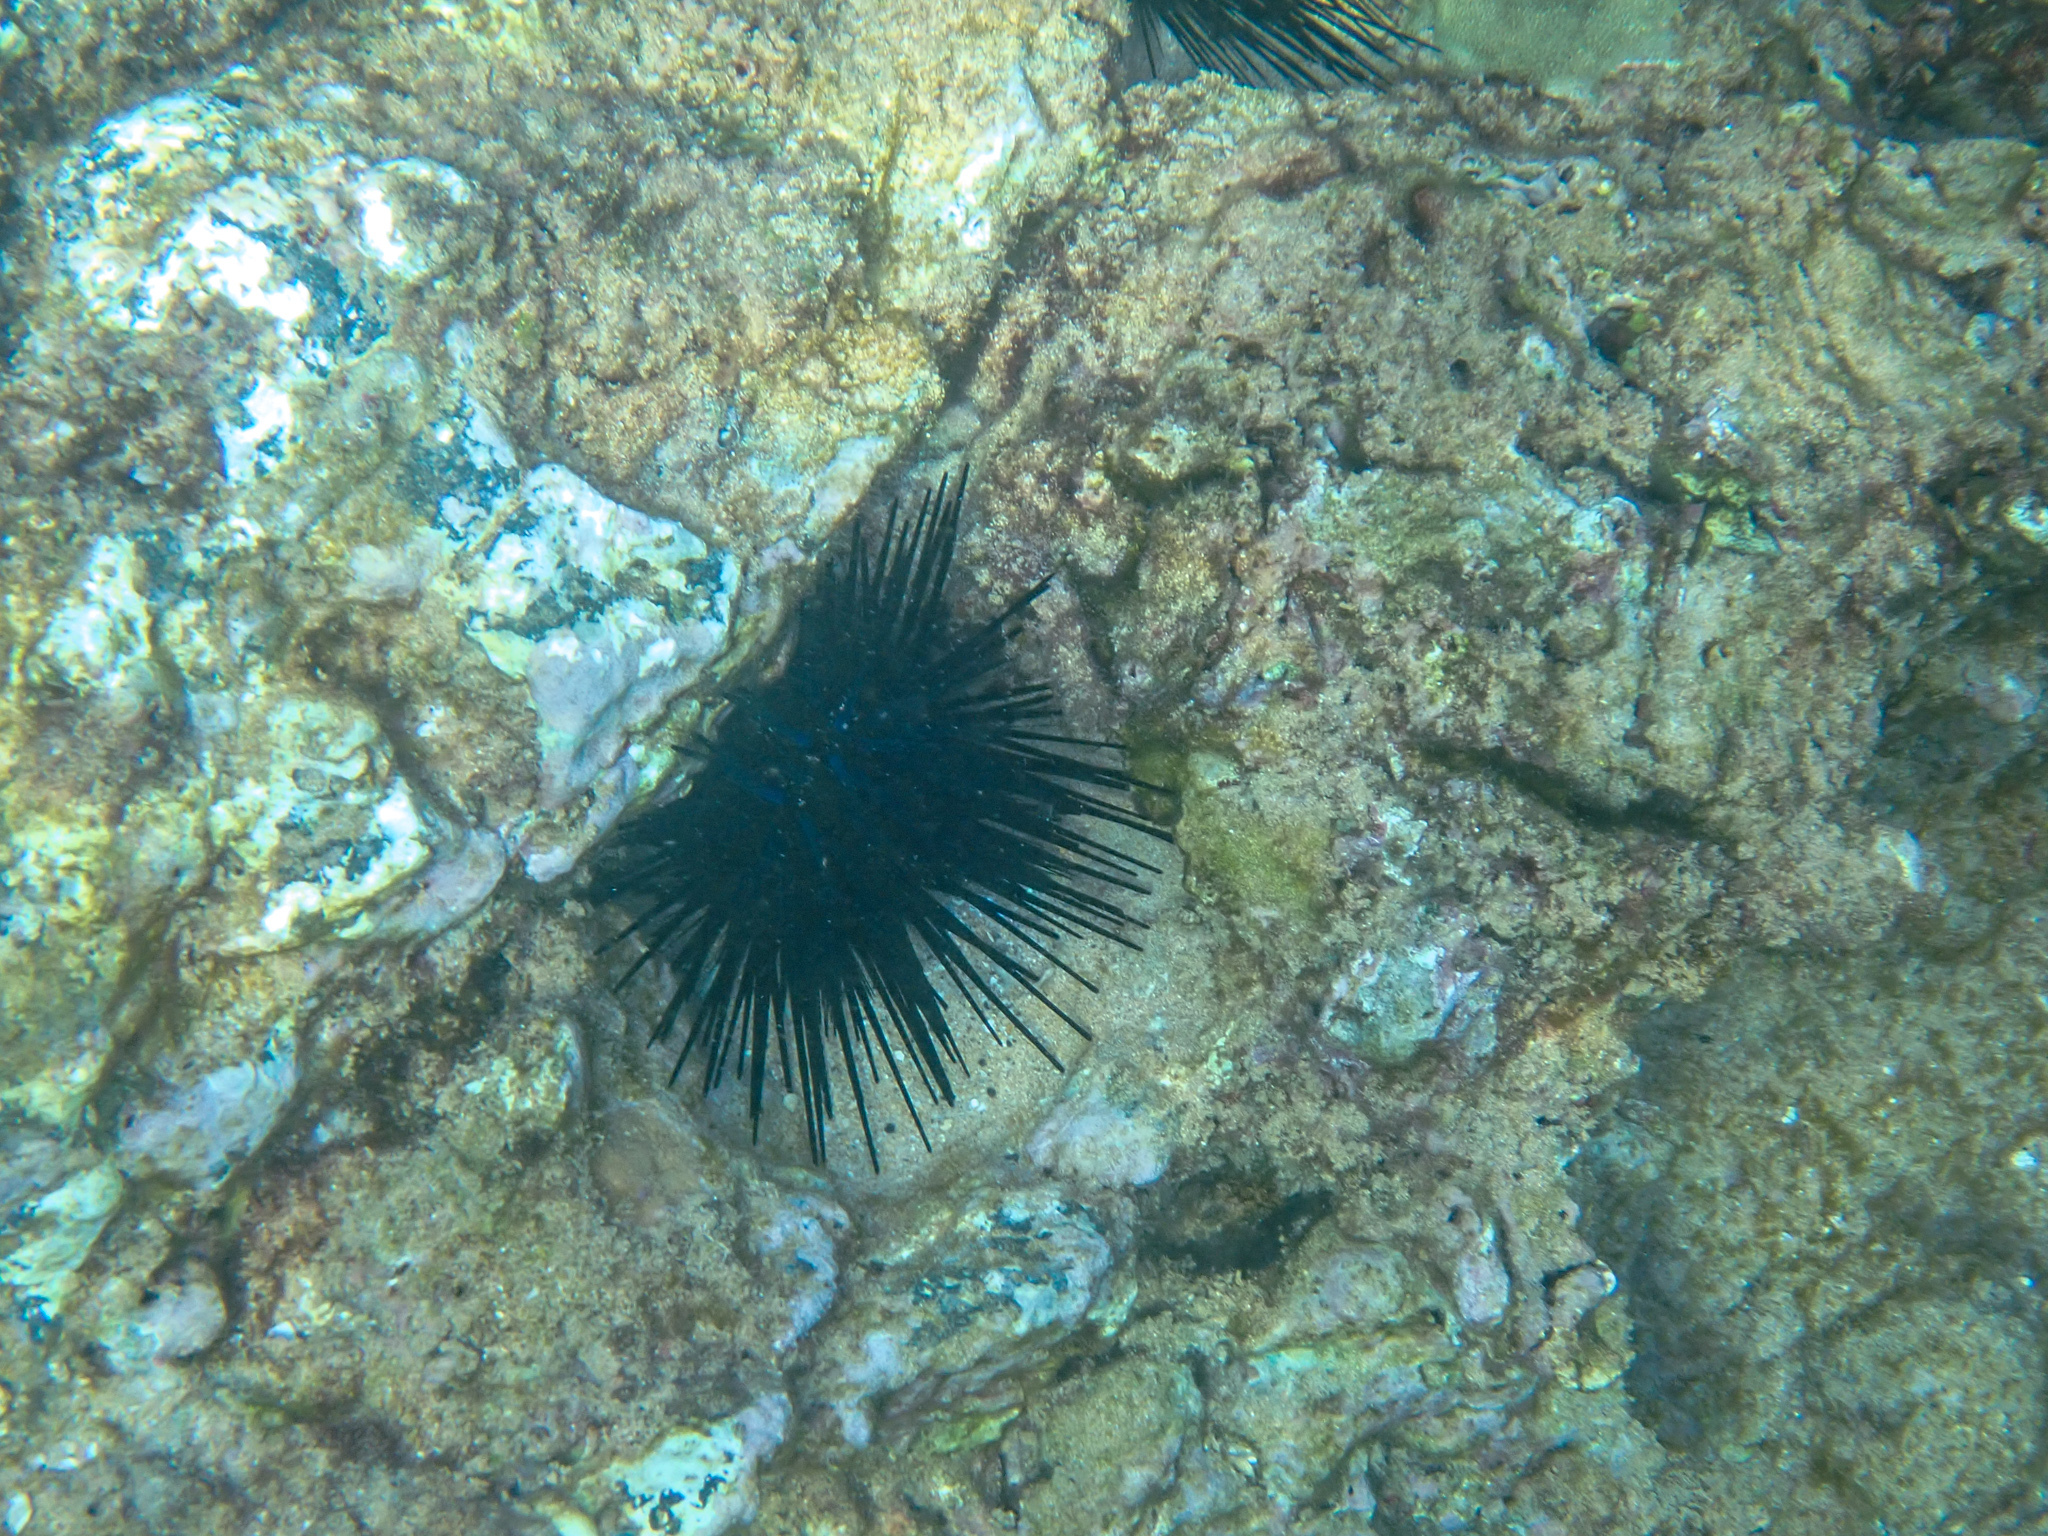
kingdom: Animalia
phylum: Echinodermata
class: Echinoidea
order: Diadematoida
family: Diadematidae
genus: Echinothrix
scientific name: Echinothrix diadema
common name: Schwarzer diademseeigel
